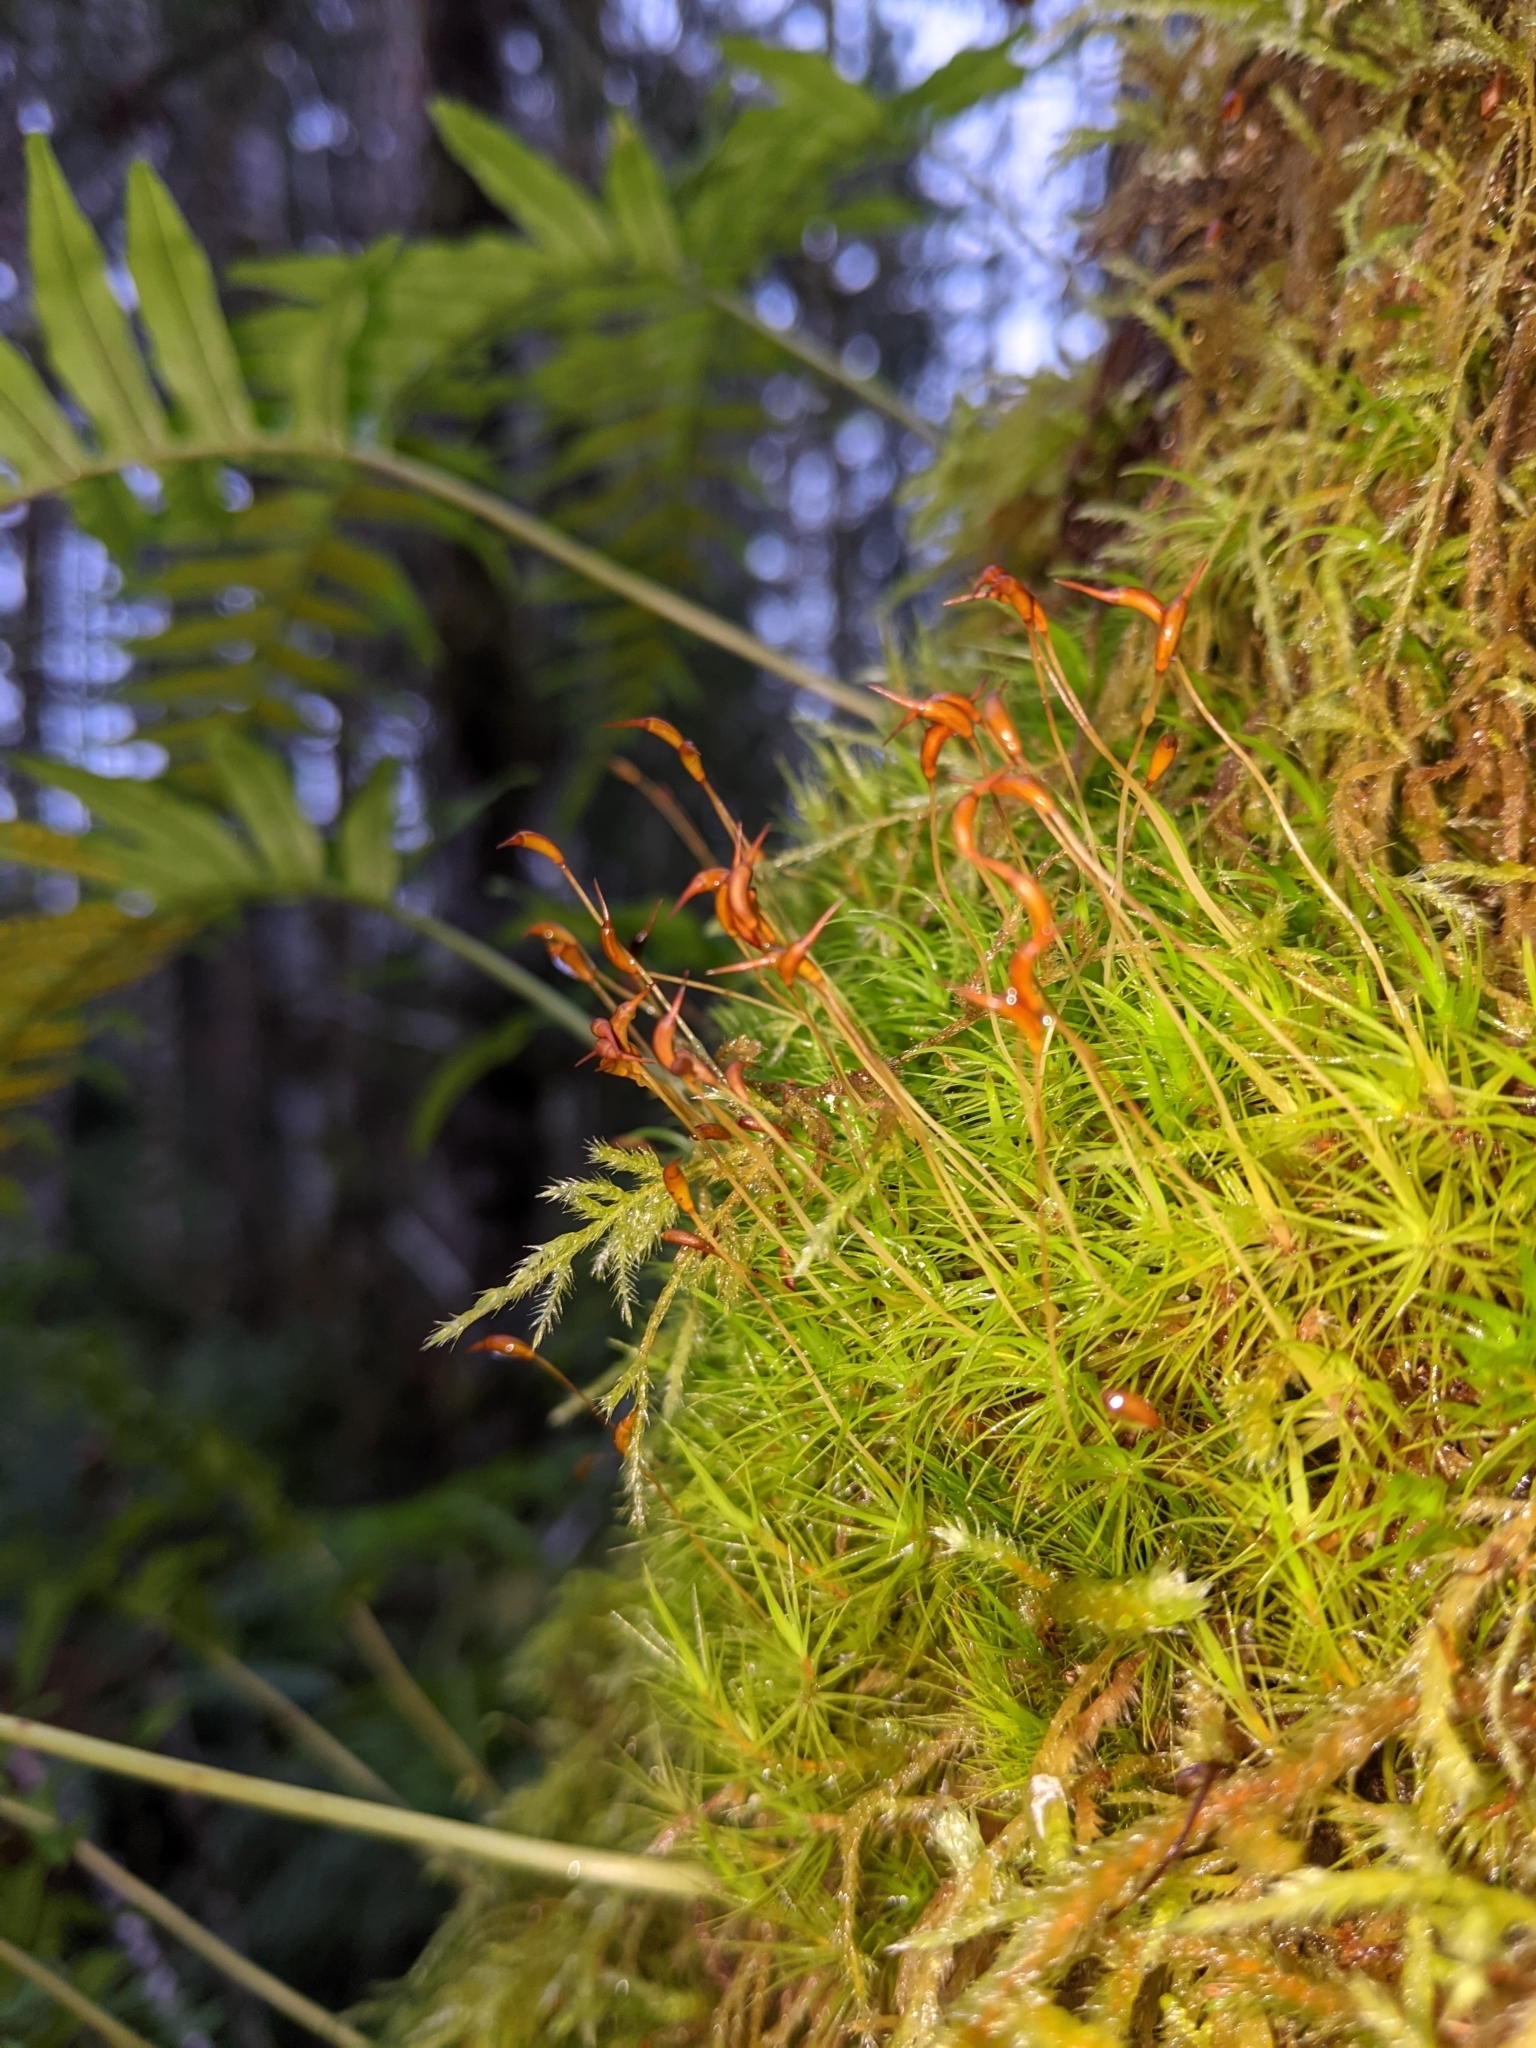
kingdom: Plantae
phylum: Bryophyta
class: Bryopsida
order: Dicranales
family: Dicranaceae
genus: Dicranum
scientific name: Dicranum scoparium
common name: Broom fork-moss
